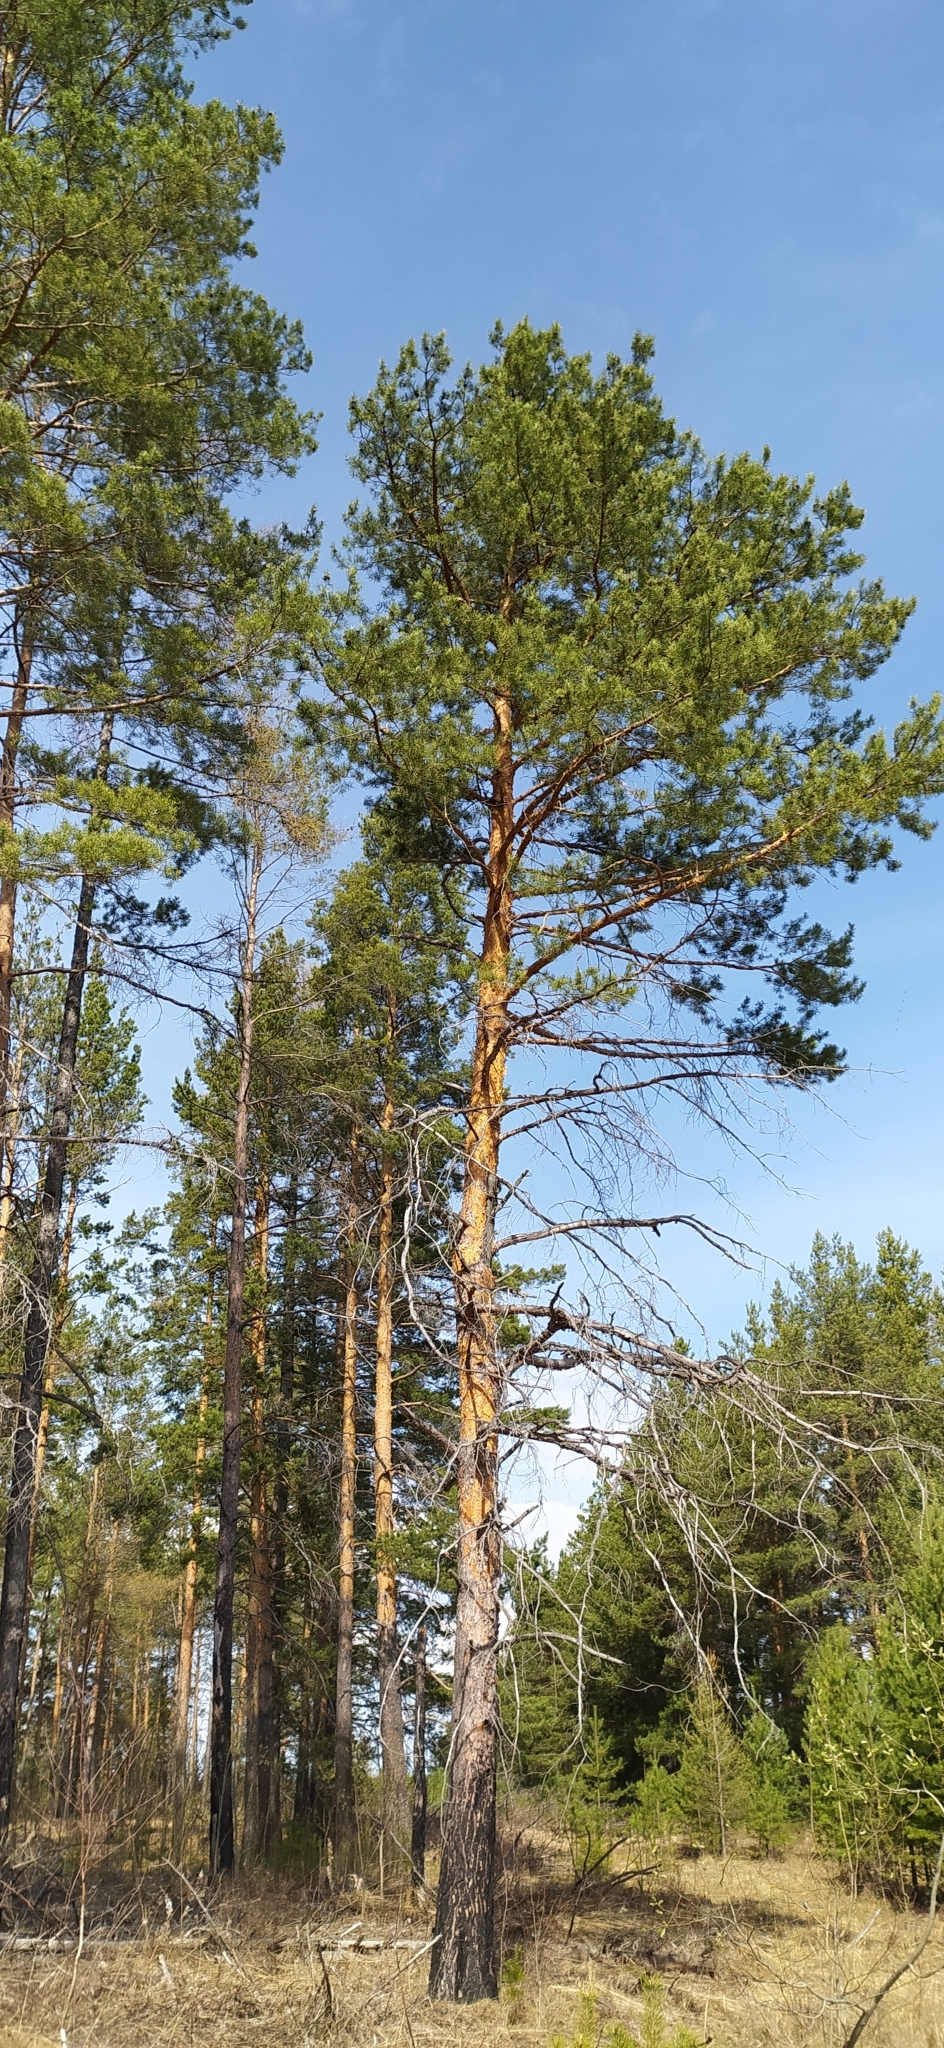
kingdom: Plantae
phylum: Tracheophyta
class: Pinopsida
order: Pinales
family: Pinaceae
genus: Pinus
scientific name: Pinus sylvestris
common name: Scots pine
